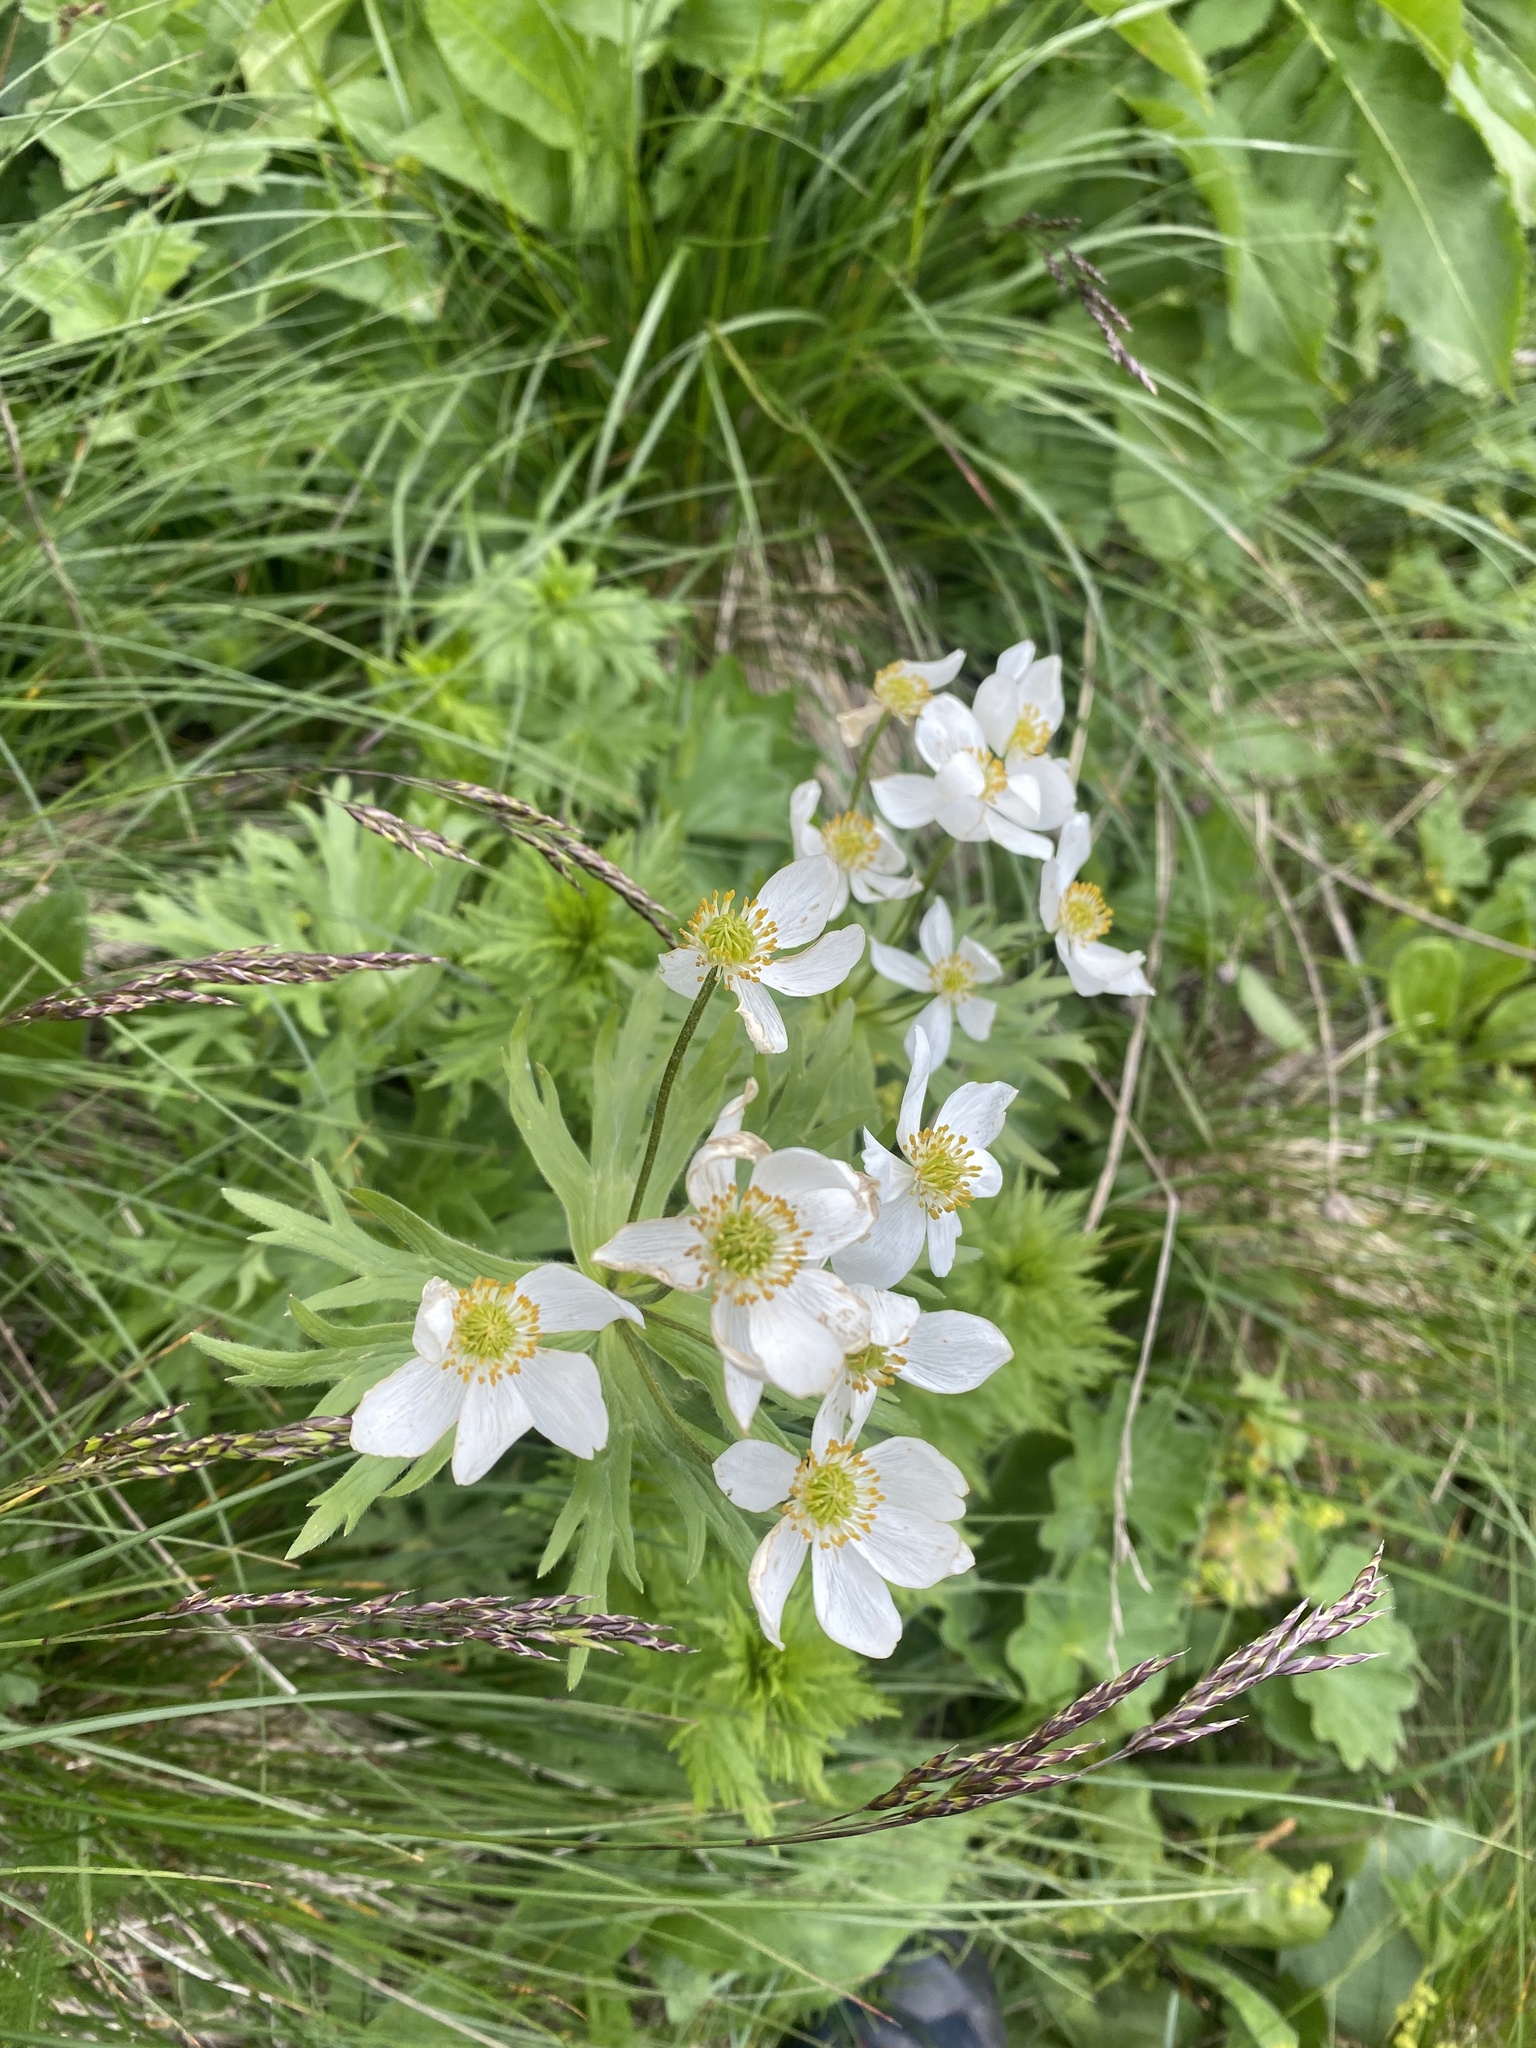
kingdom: Plantae
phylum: Tracheophyta
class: Magnoliopsida
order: Ranunculales
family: Ranunculaceae
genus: Anemonastrum
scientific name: Anemonastrum narcissiflorum
